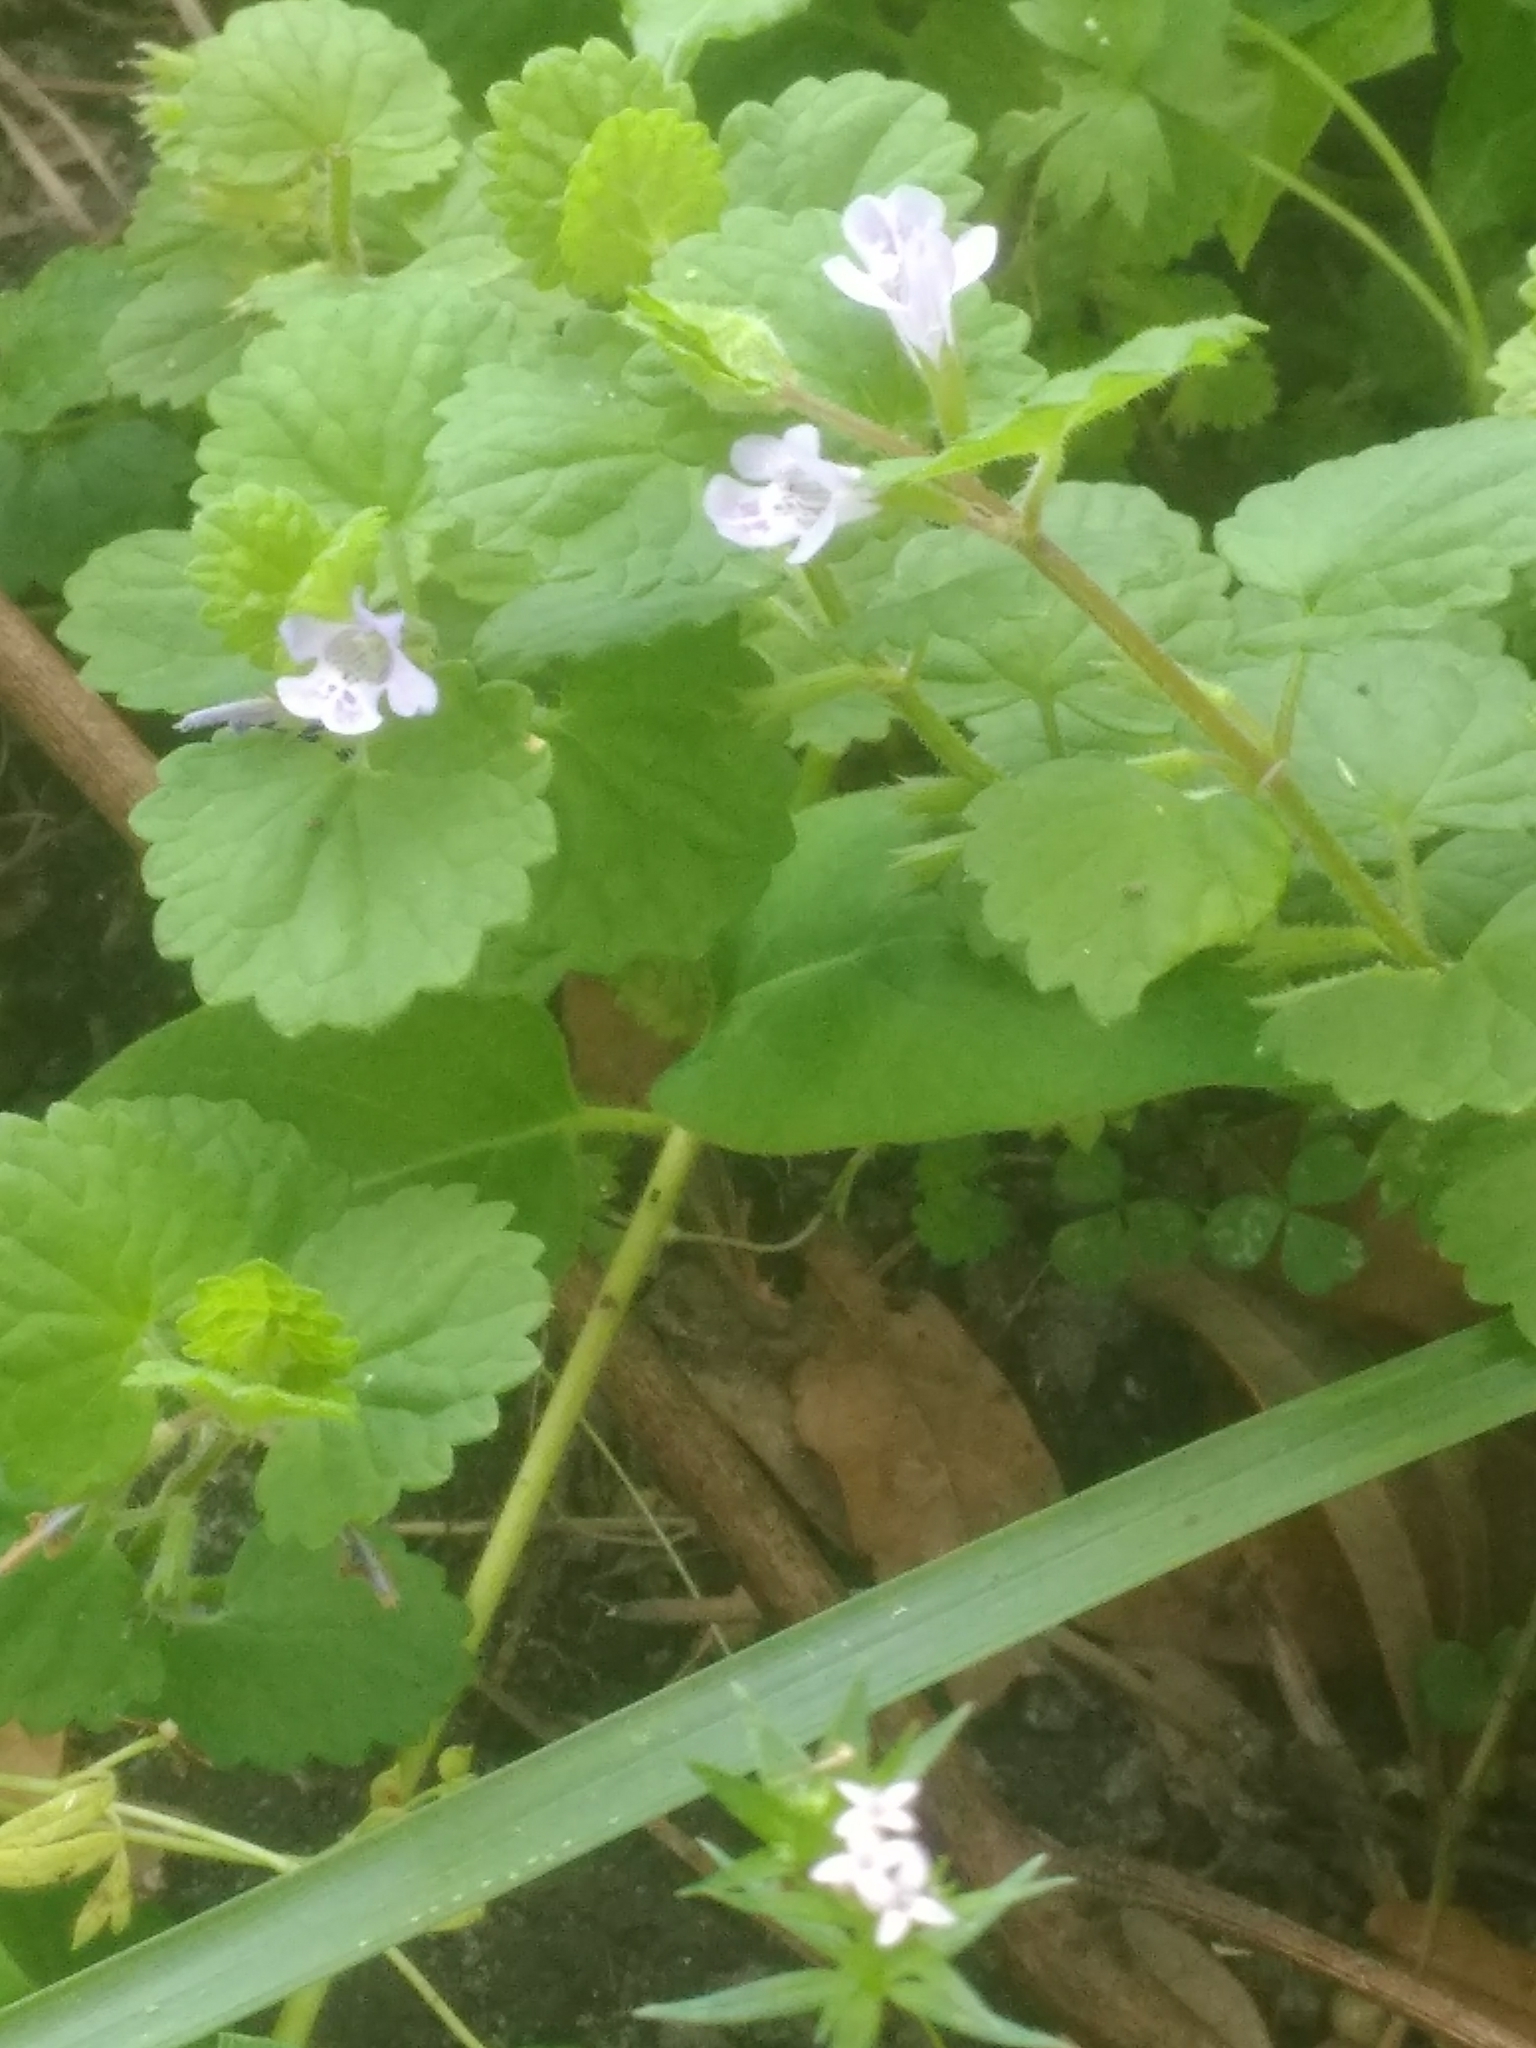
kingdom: Plantae
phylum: Tracheophyta
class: Magnoliopsida
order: Lamiales
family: Lamiaceae
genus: Glechoma
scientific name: Glechoma hederacea
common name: Ground ivy
